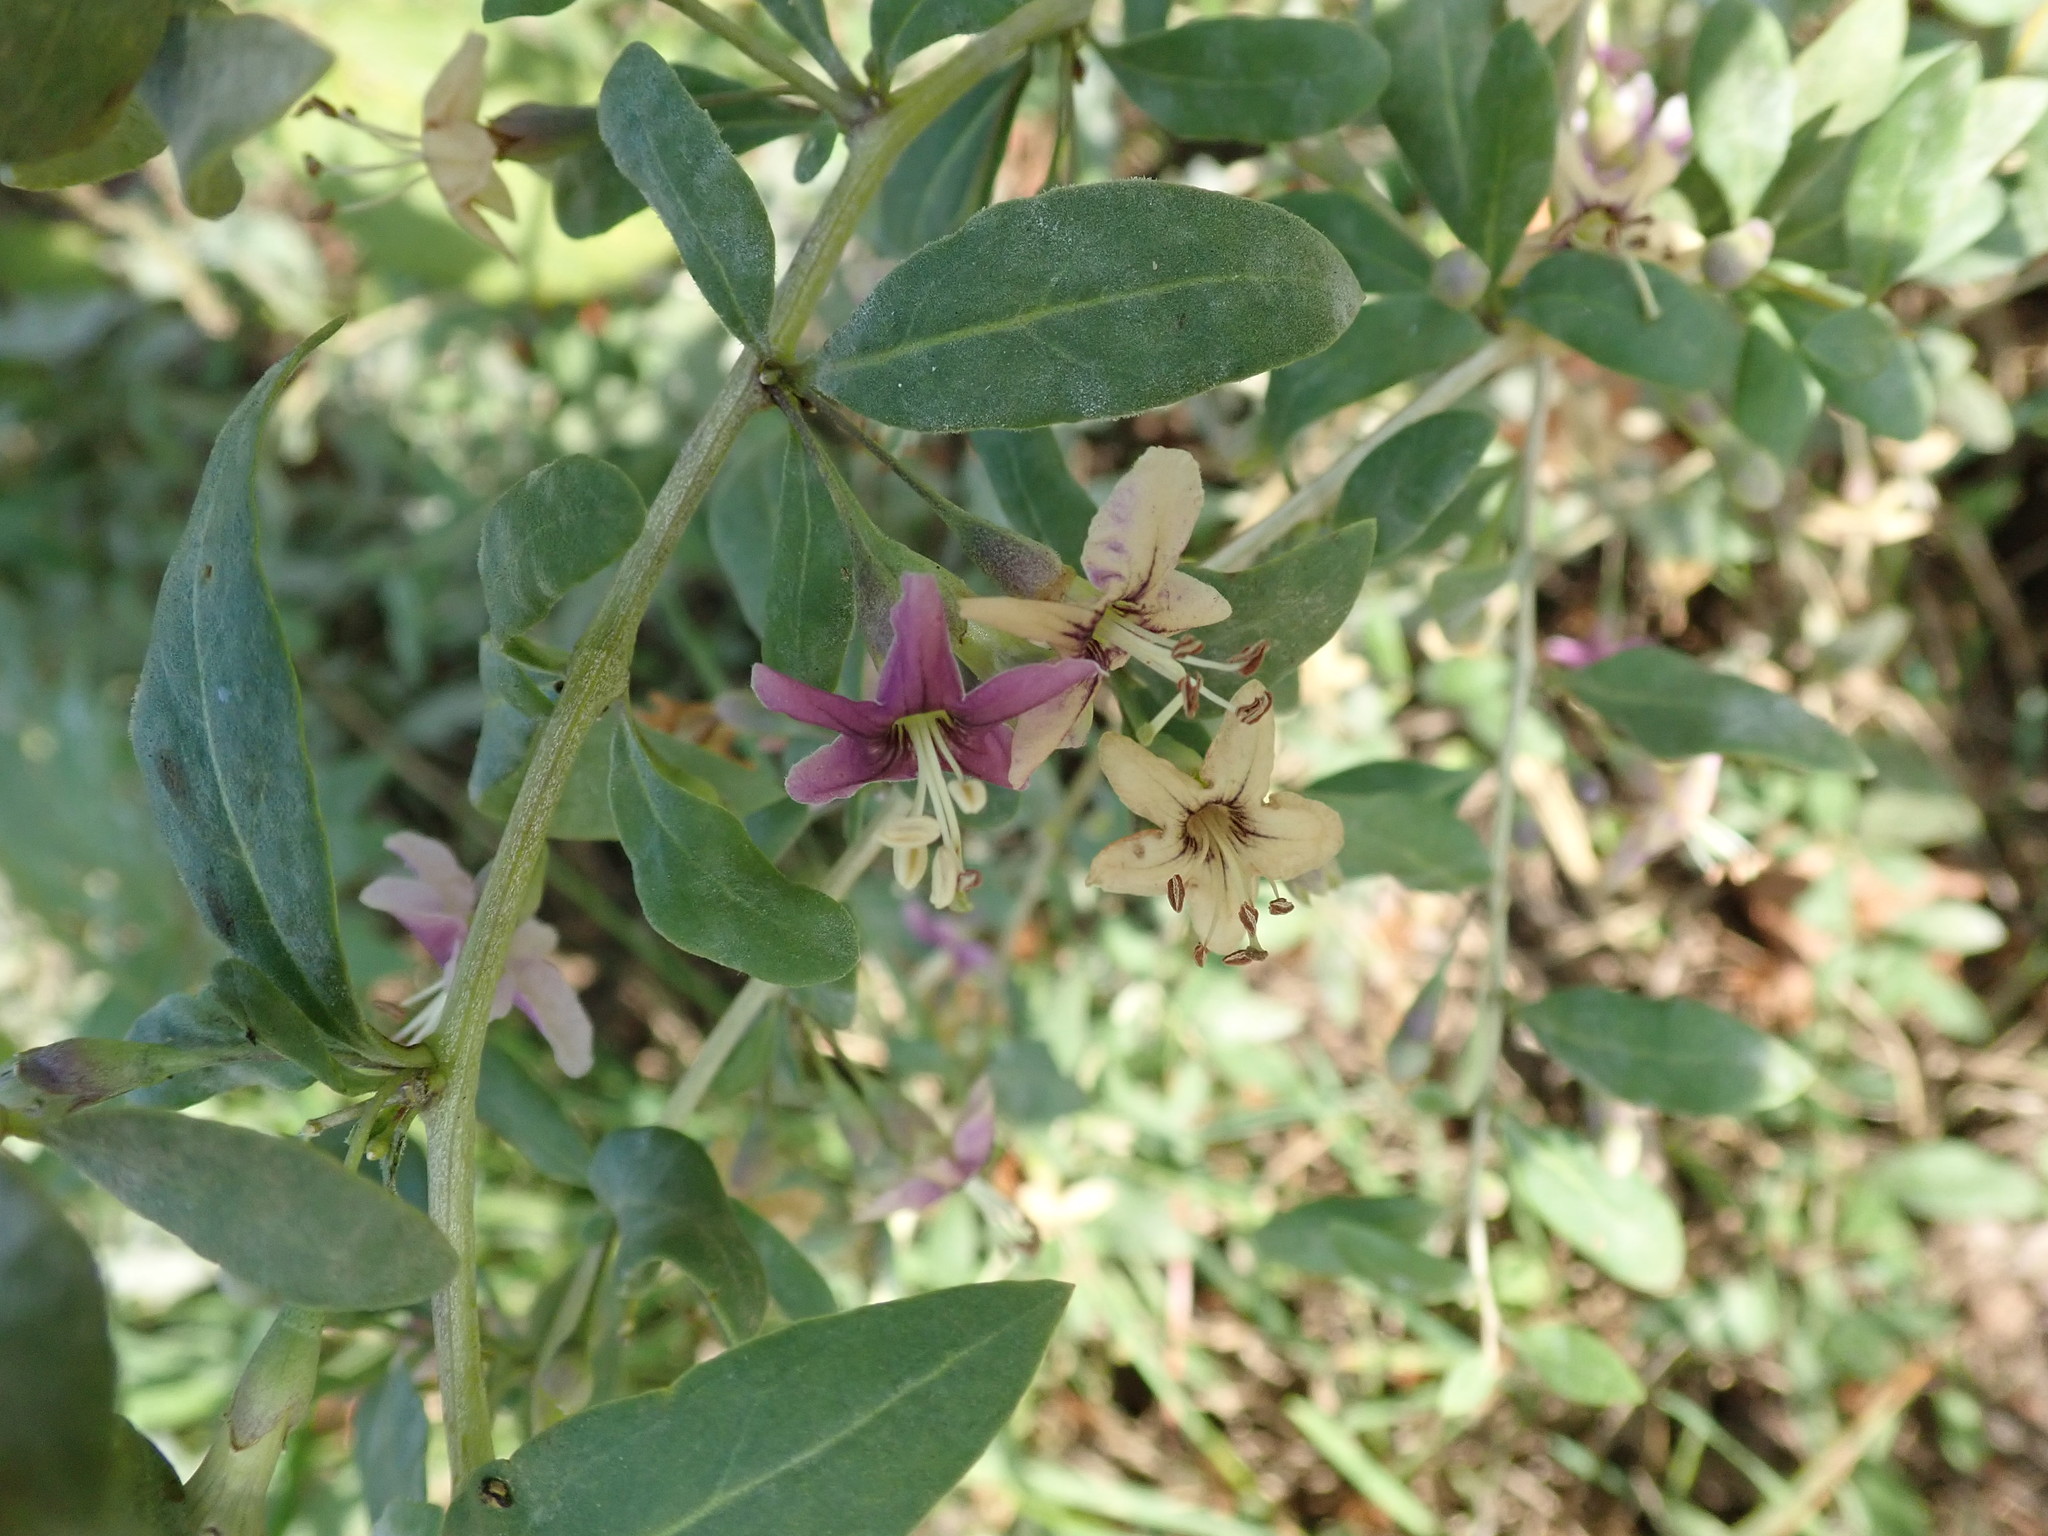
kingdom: Plantae
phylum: Tracheophyta
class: Magnoliopsida
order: Solanales
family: Solanaceae
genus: Lycium
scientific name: Lycium barbarum
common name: Duke of argyll's teaplant
